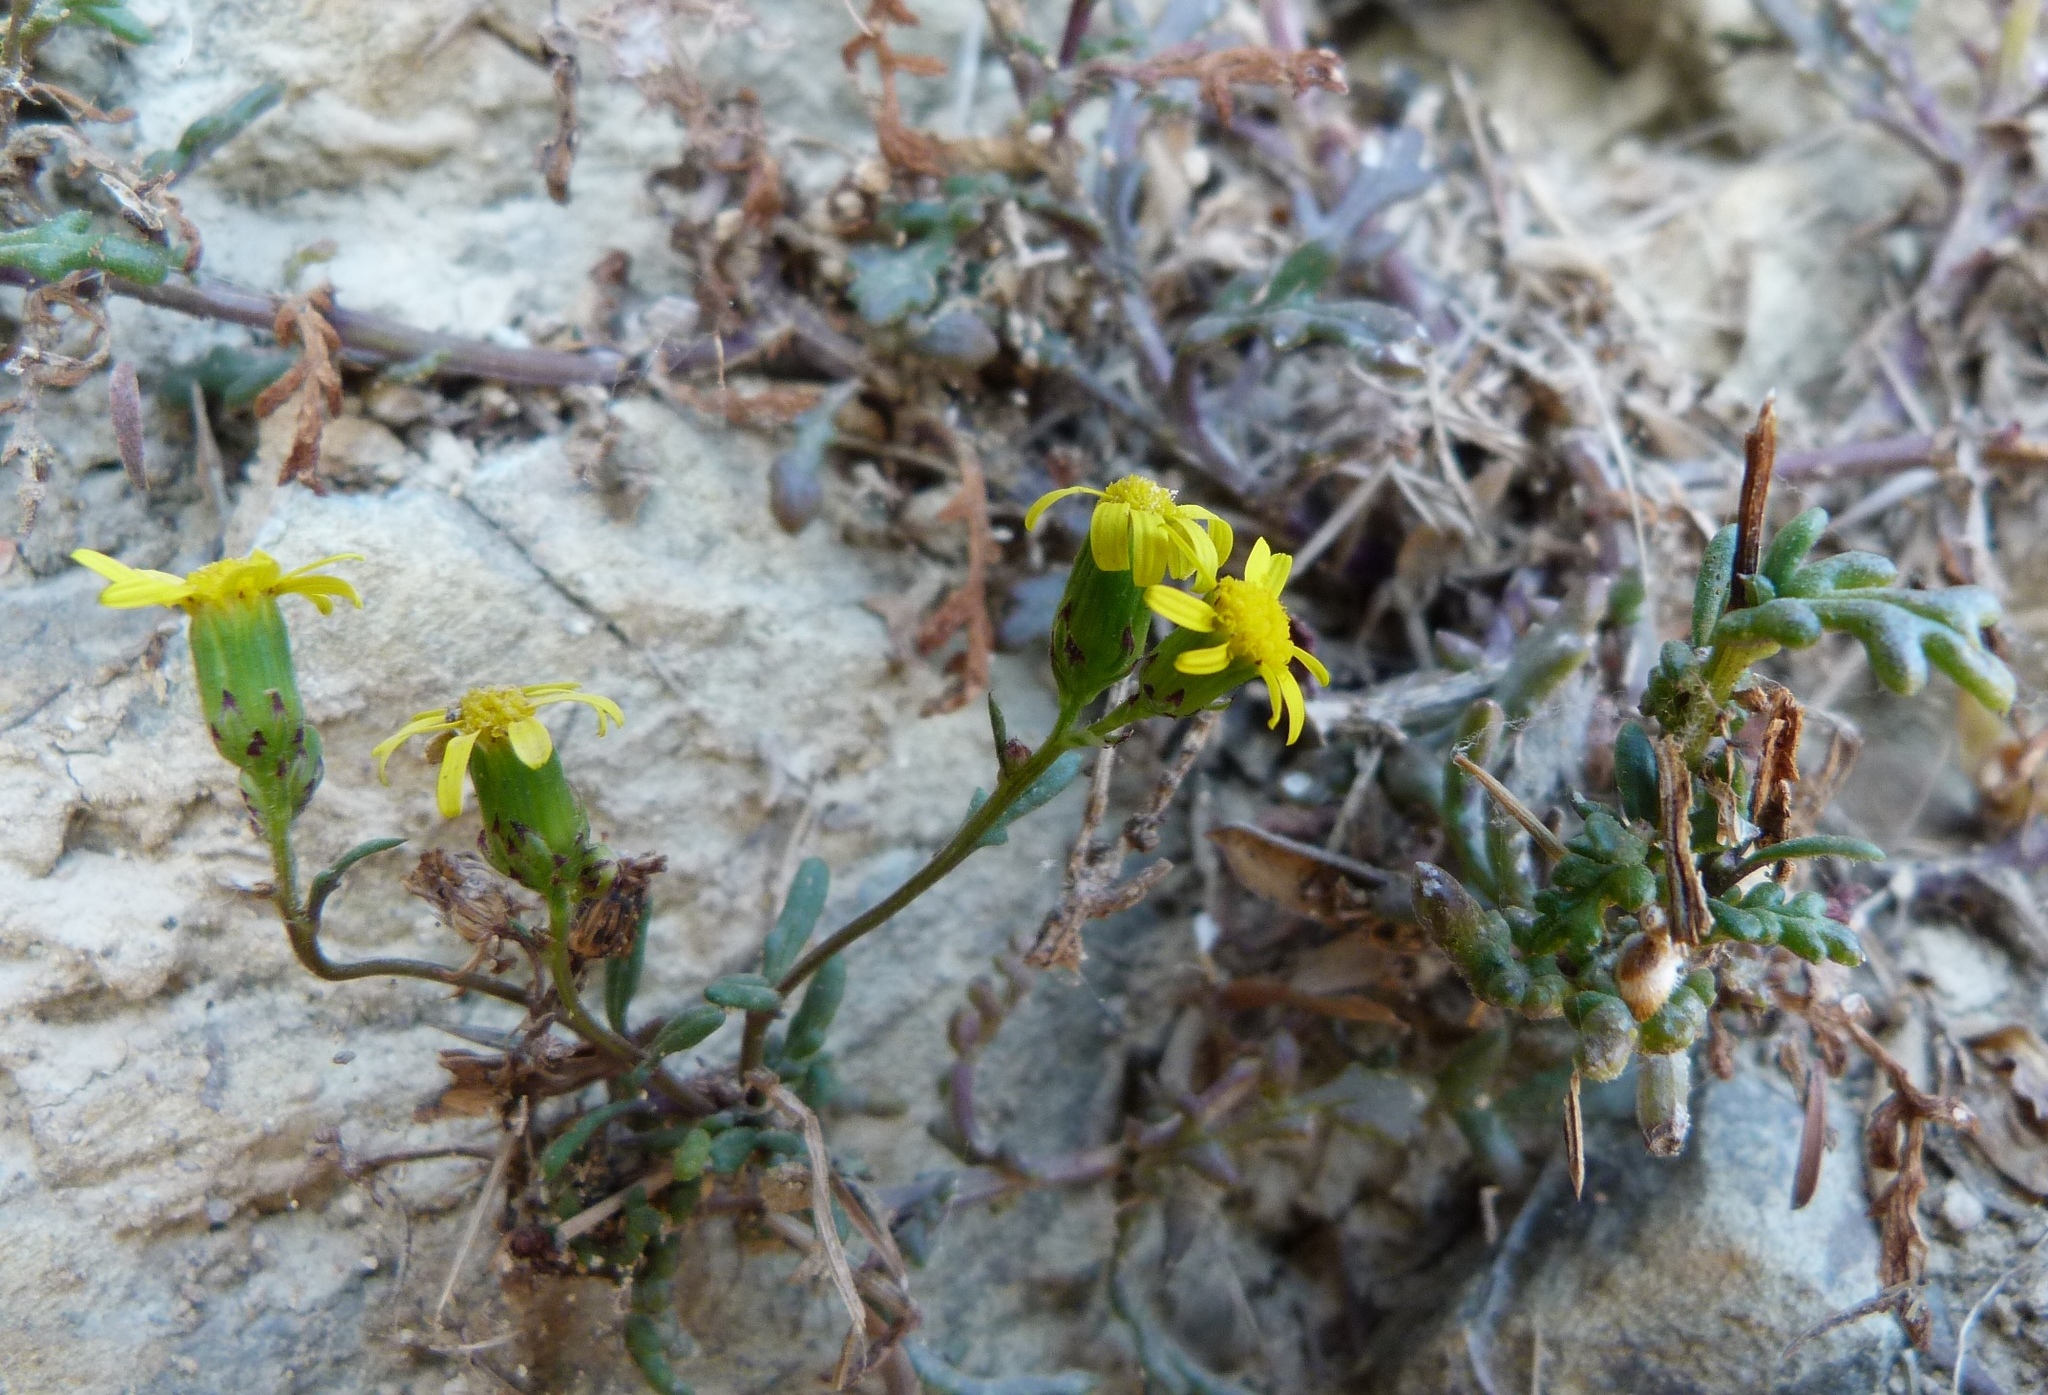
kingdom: Plantae
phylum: Tracheophyta
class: Magnoliopsida
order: Asterales
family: Asteraceae
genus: Senecio
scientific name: Senecio lautus
